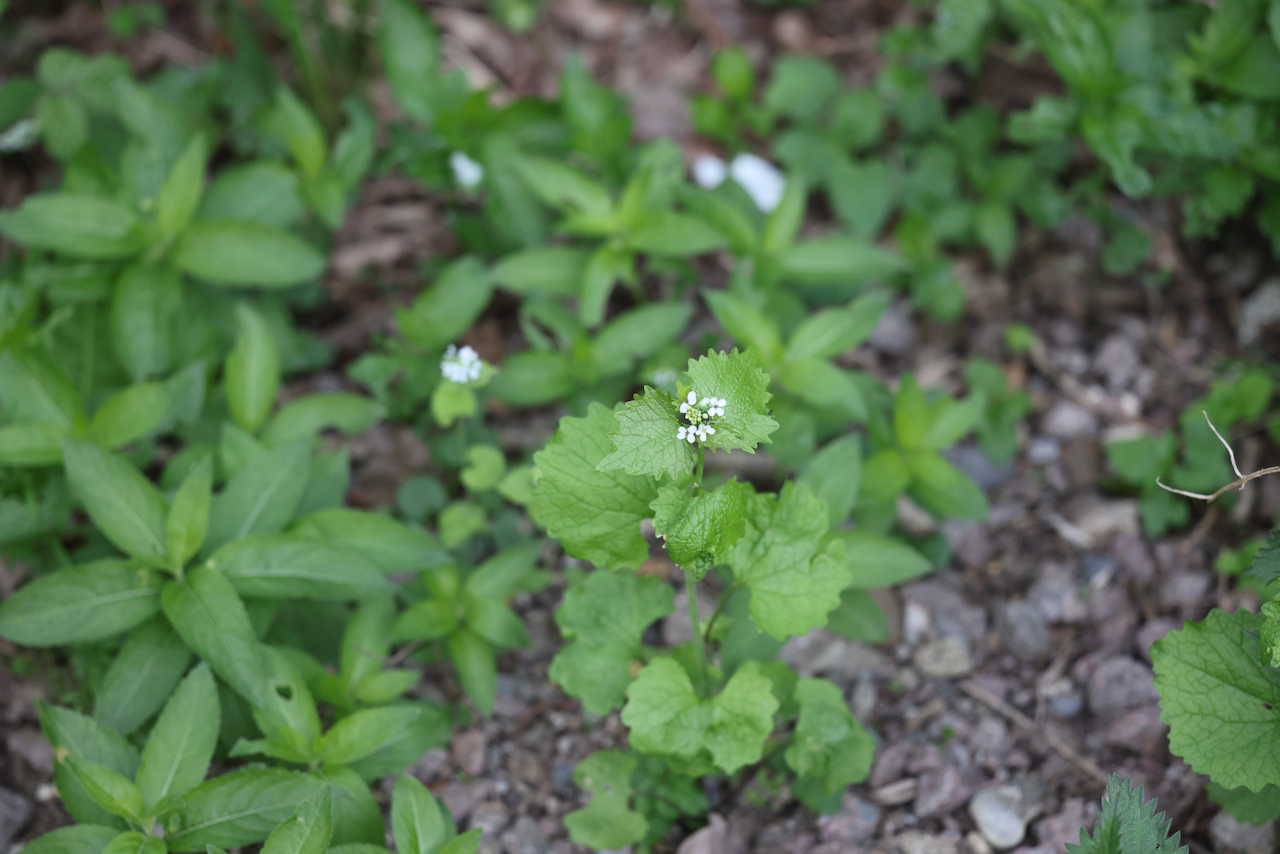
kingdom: Plantae
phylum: Tracheophyta
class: Magnoliopsida
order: Brassicales
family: Brassicaceae
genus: Alliaria
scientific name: Alliaria petiolata
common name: Garlic mustard
